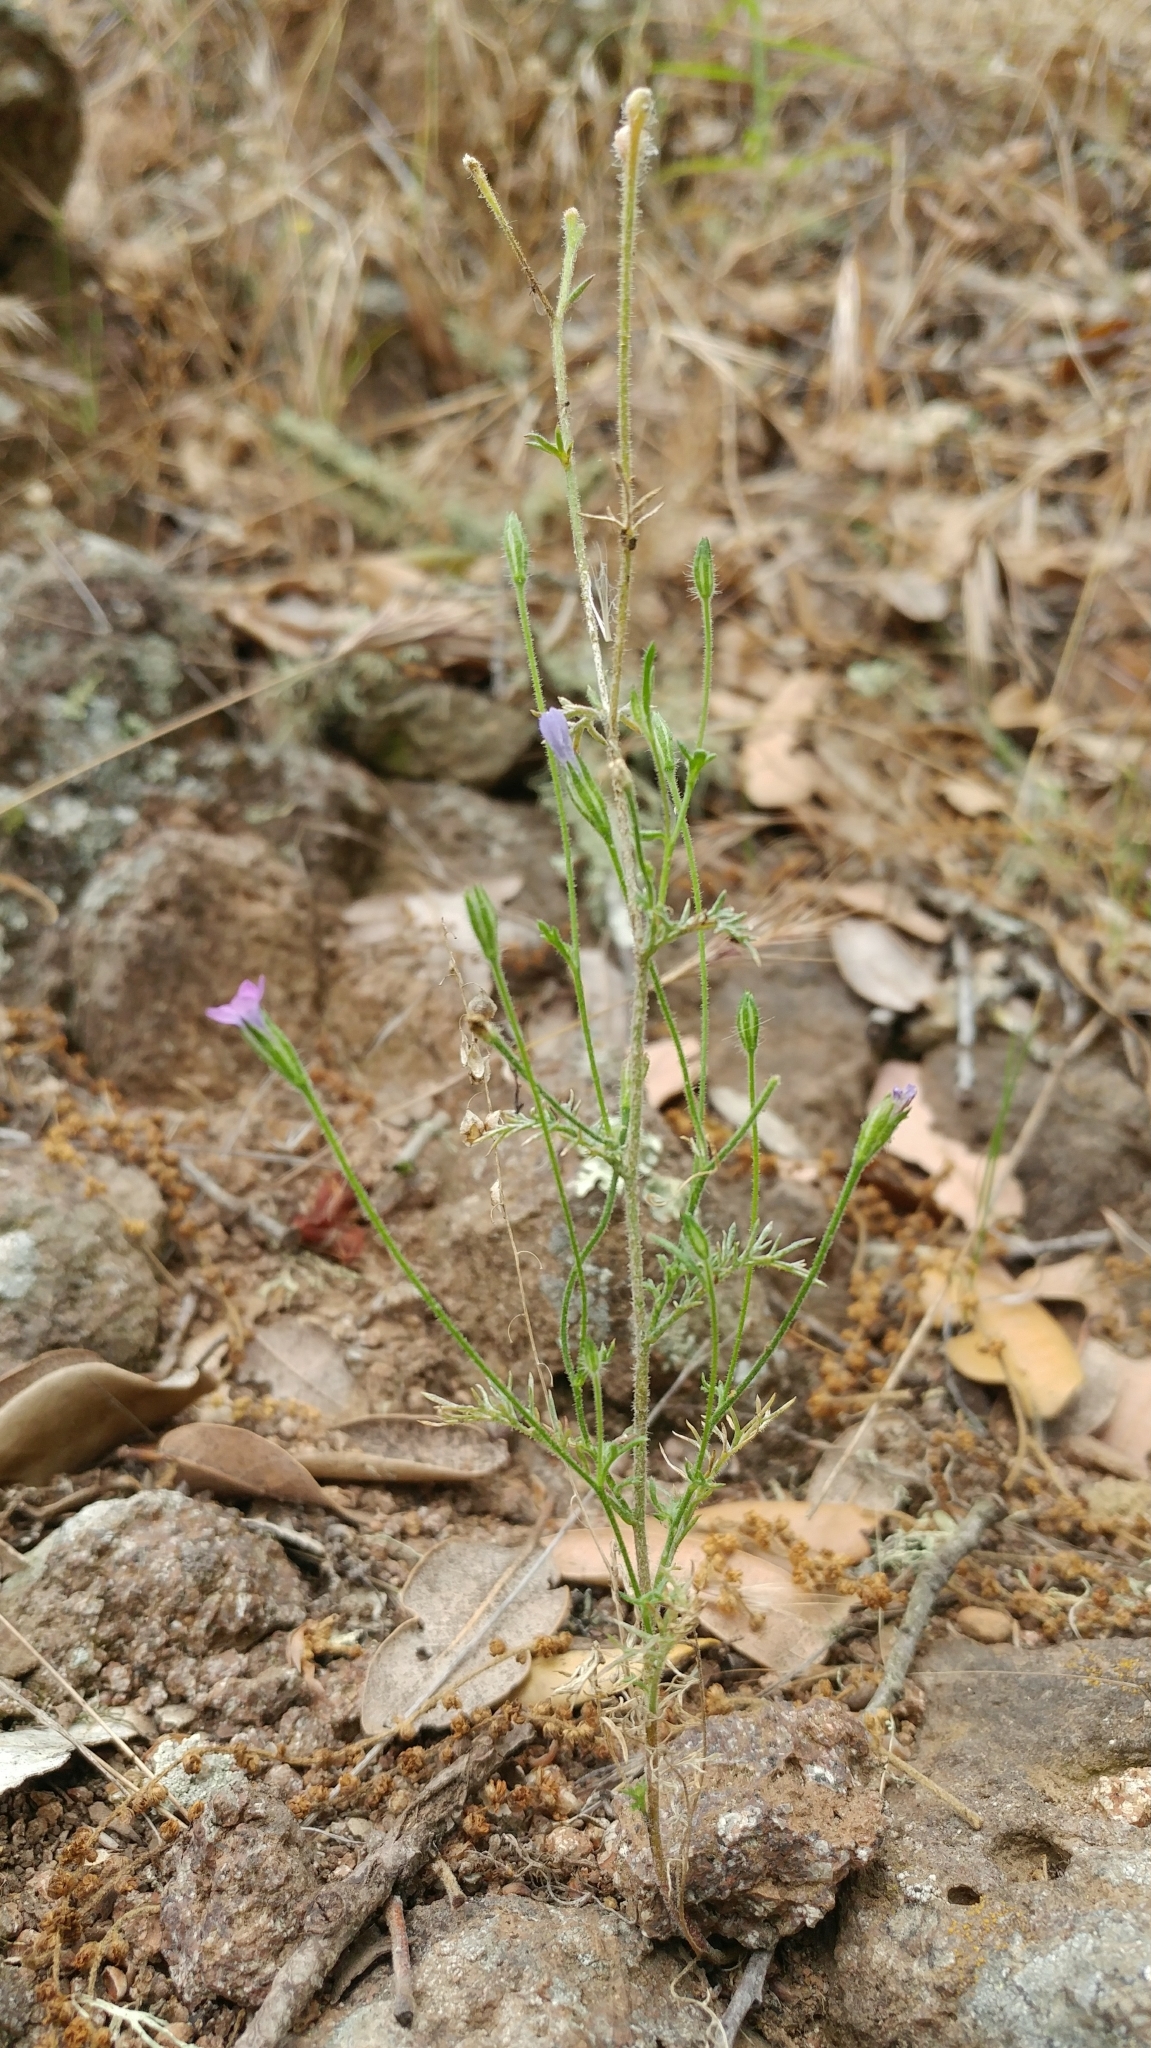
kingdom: Plantae
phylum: Tracheophyta
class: Magnoliopsida
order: Ericales
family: Polemoniaceae
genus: Gilia
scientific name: Gilia nevinii
